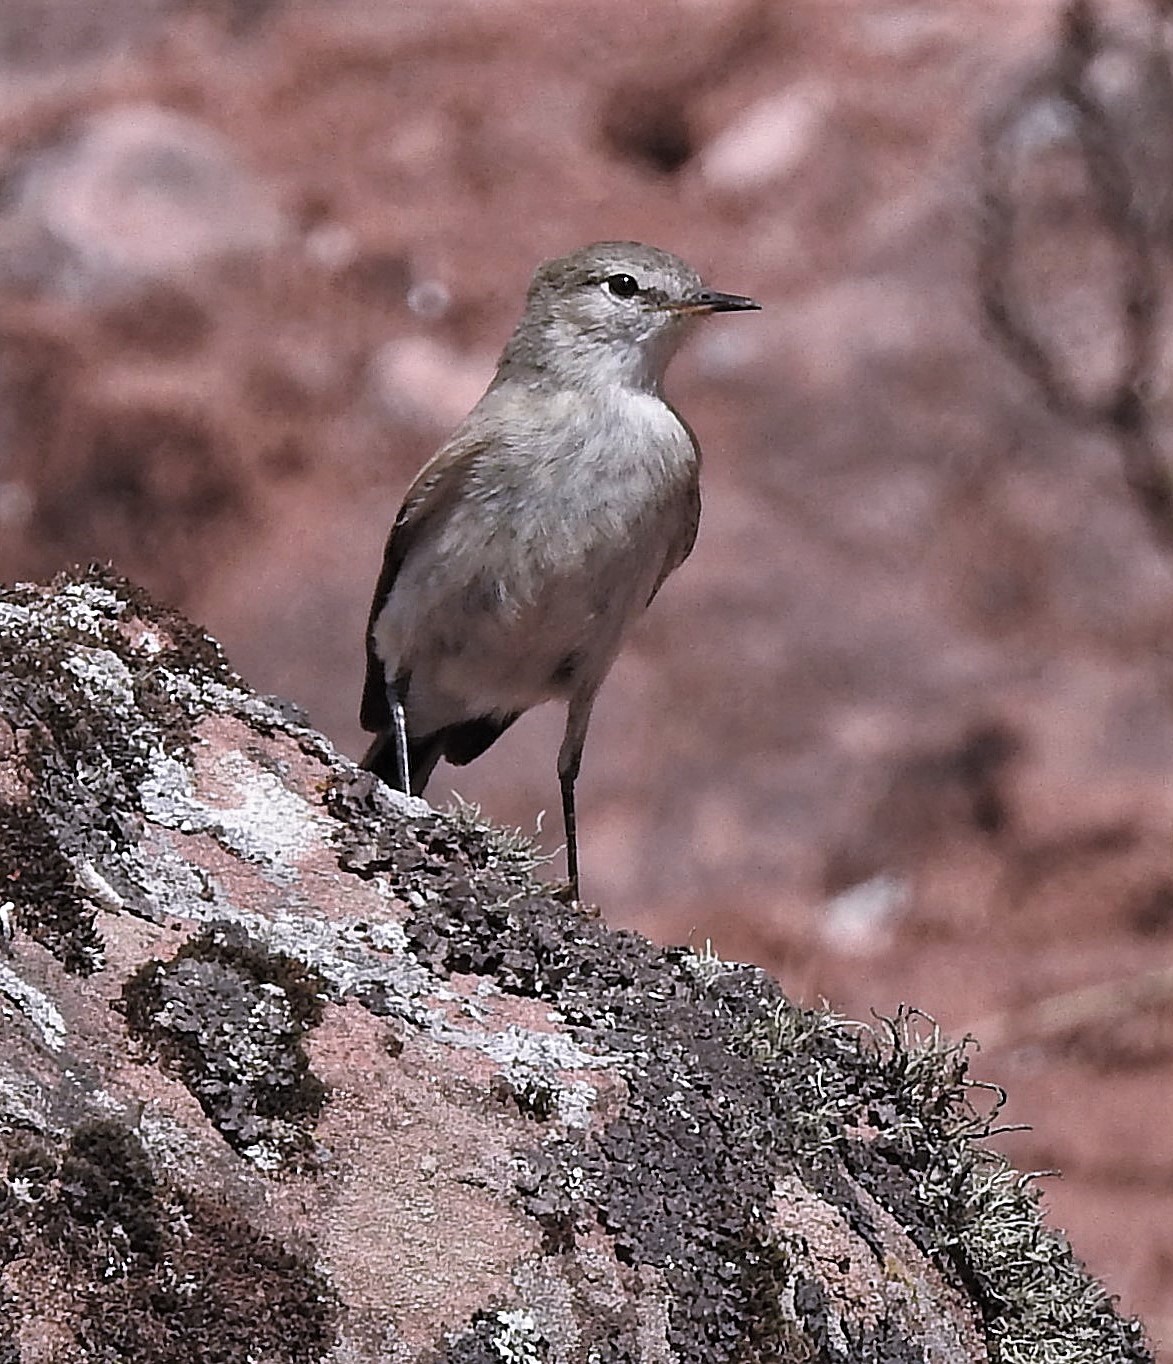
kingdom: Animalia
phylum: Chordata
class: Aves
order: Passeriformes
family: Tyrannidae
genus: Muscisaxicola
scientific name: Muscisaxicola maculirostris
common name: Spot-billed ground tyrant
